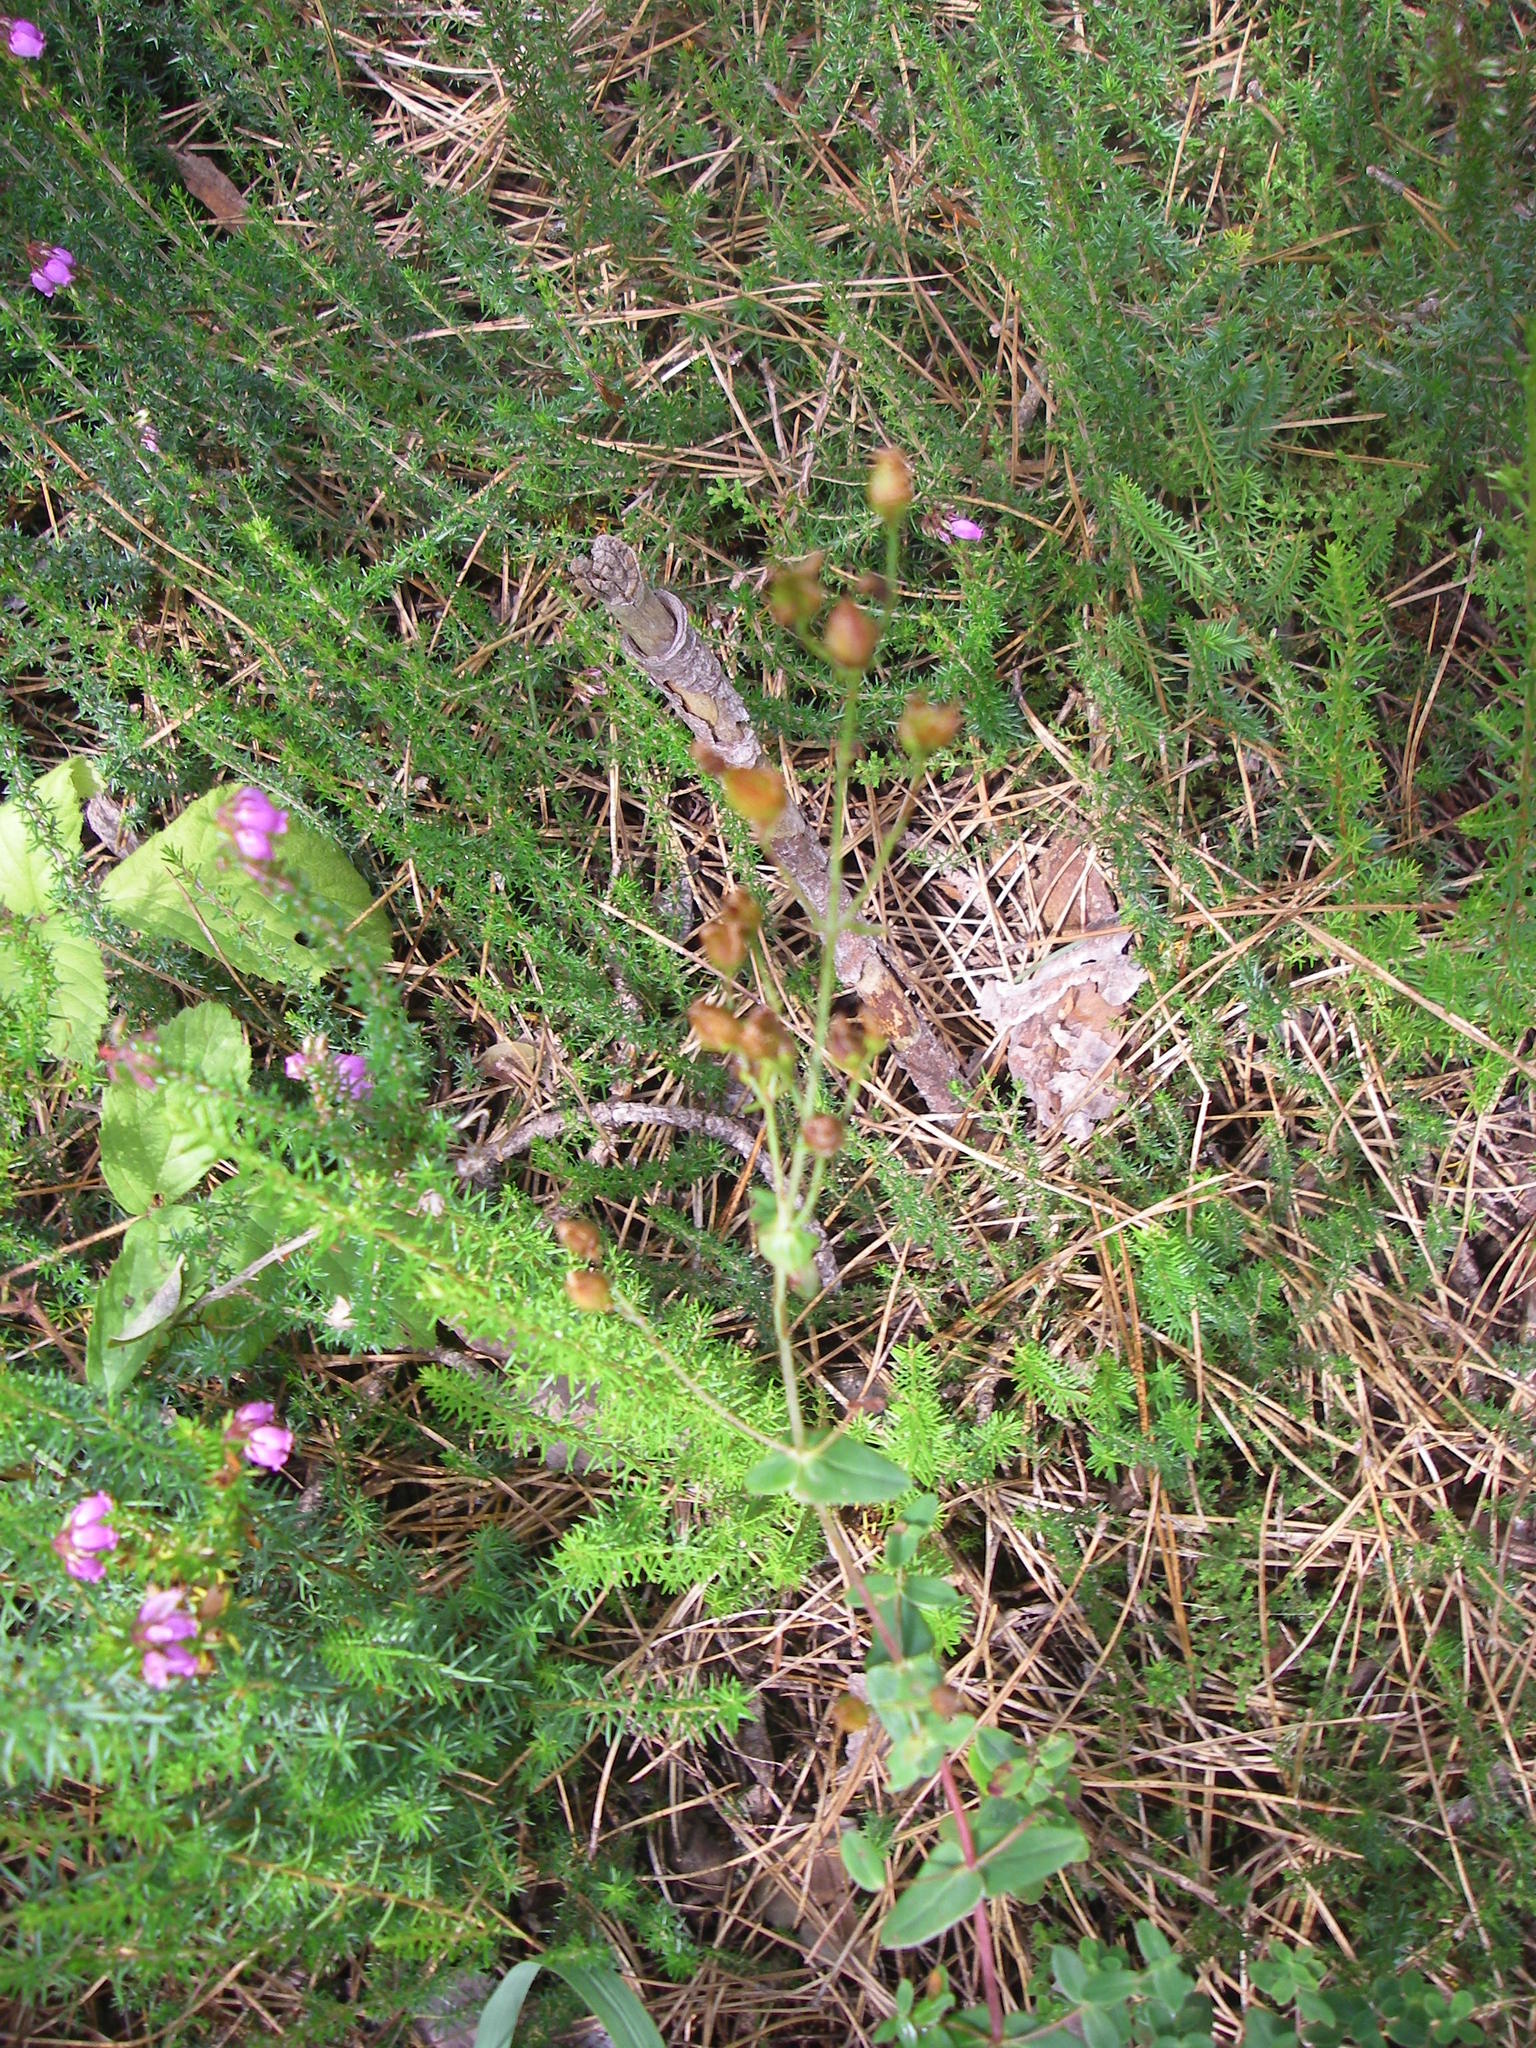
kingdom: Plantae
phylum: Tracheophyta
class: Magnoliopsida
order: Ericales
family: Ericaceae
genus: Erica
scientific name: Erica cinerea
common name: Bell heather
